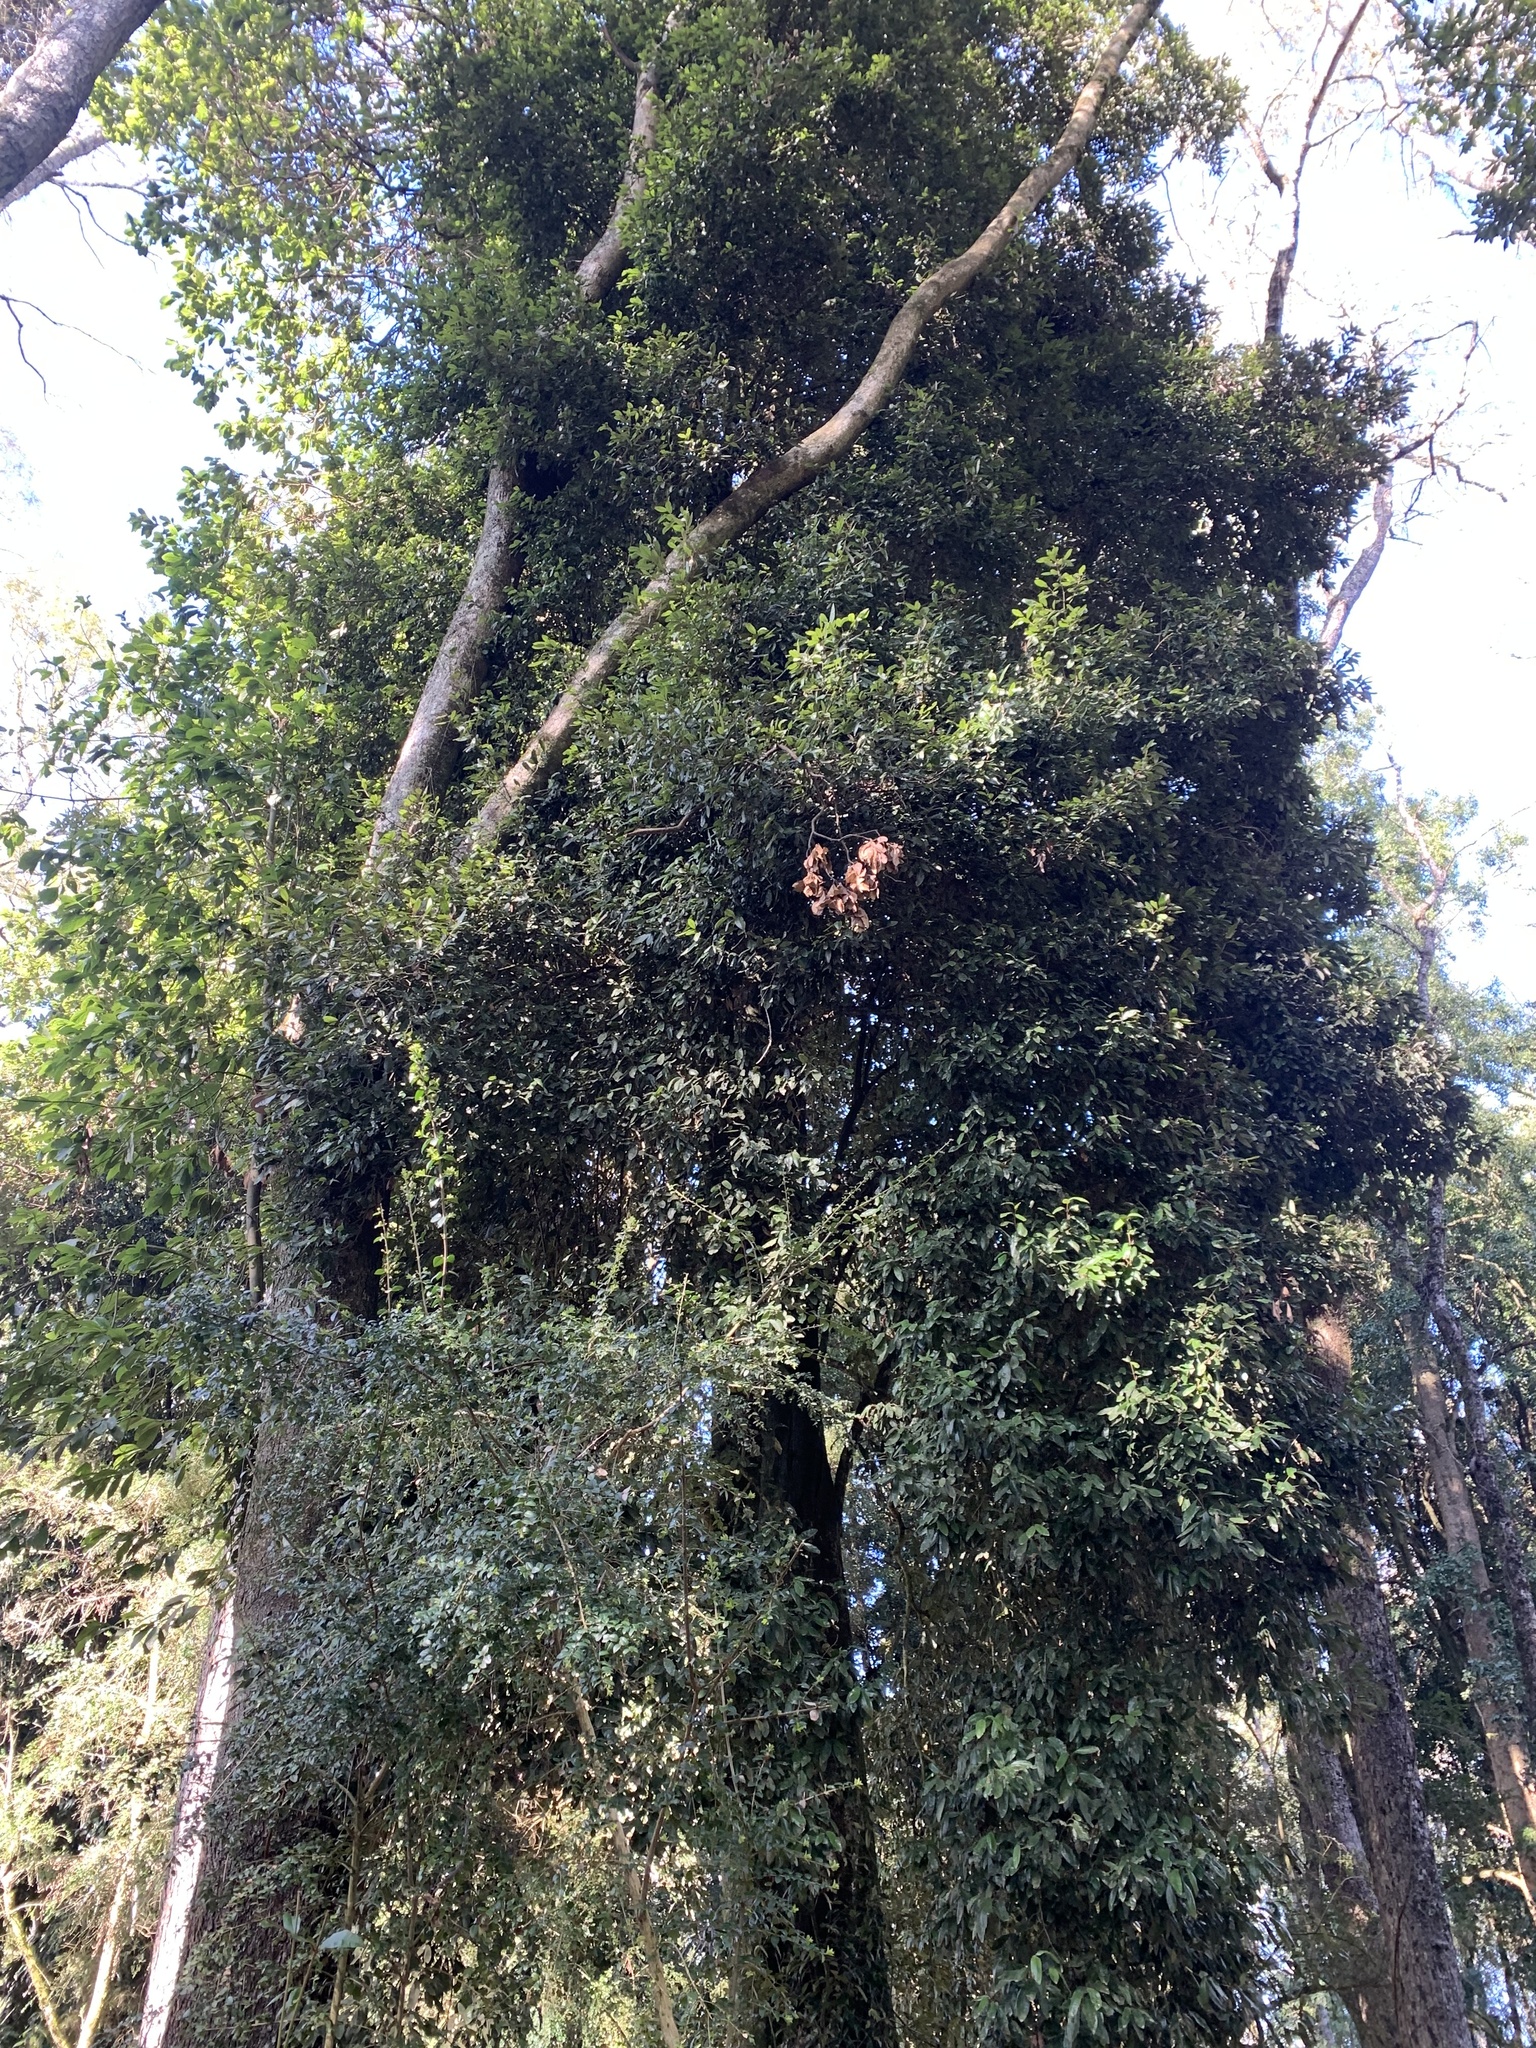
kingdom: Plantae
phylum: Tracheophyta
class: Magnoliopsida
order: Berberidopsidales
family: Aextoxicaceae
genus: Aextoxicon
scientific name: Aextoxicon punctatum
